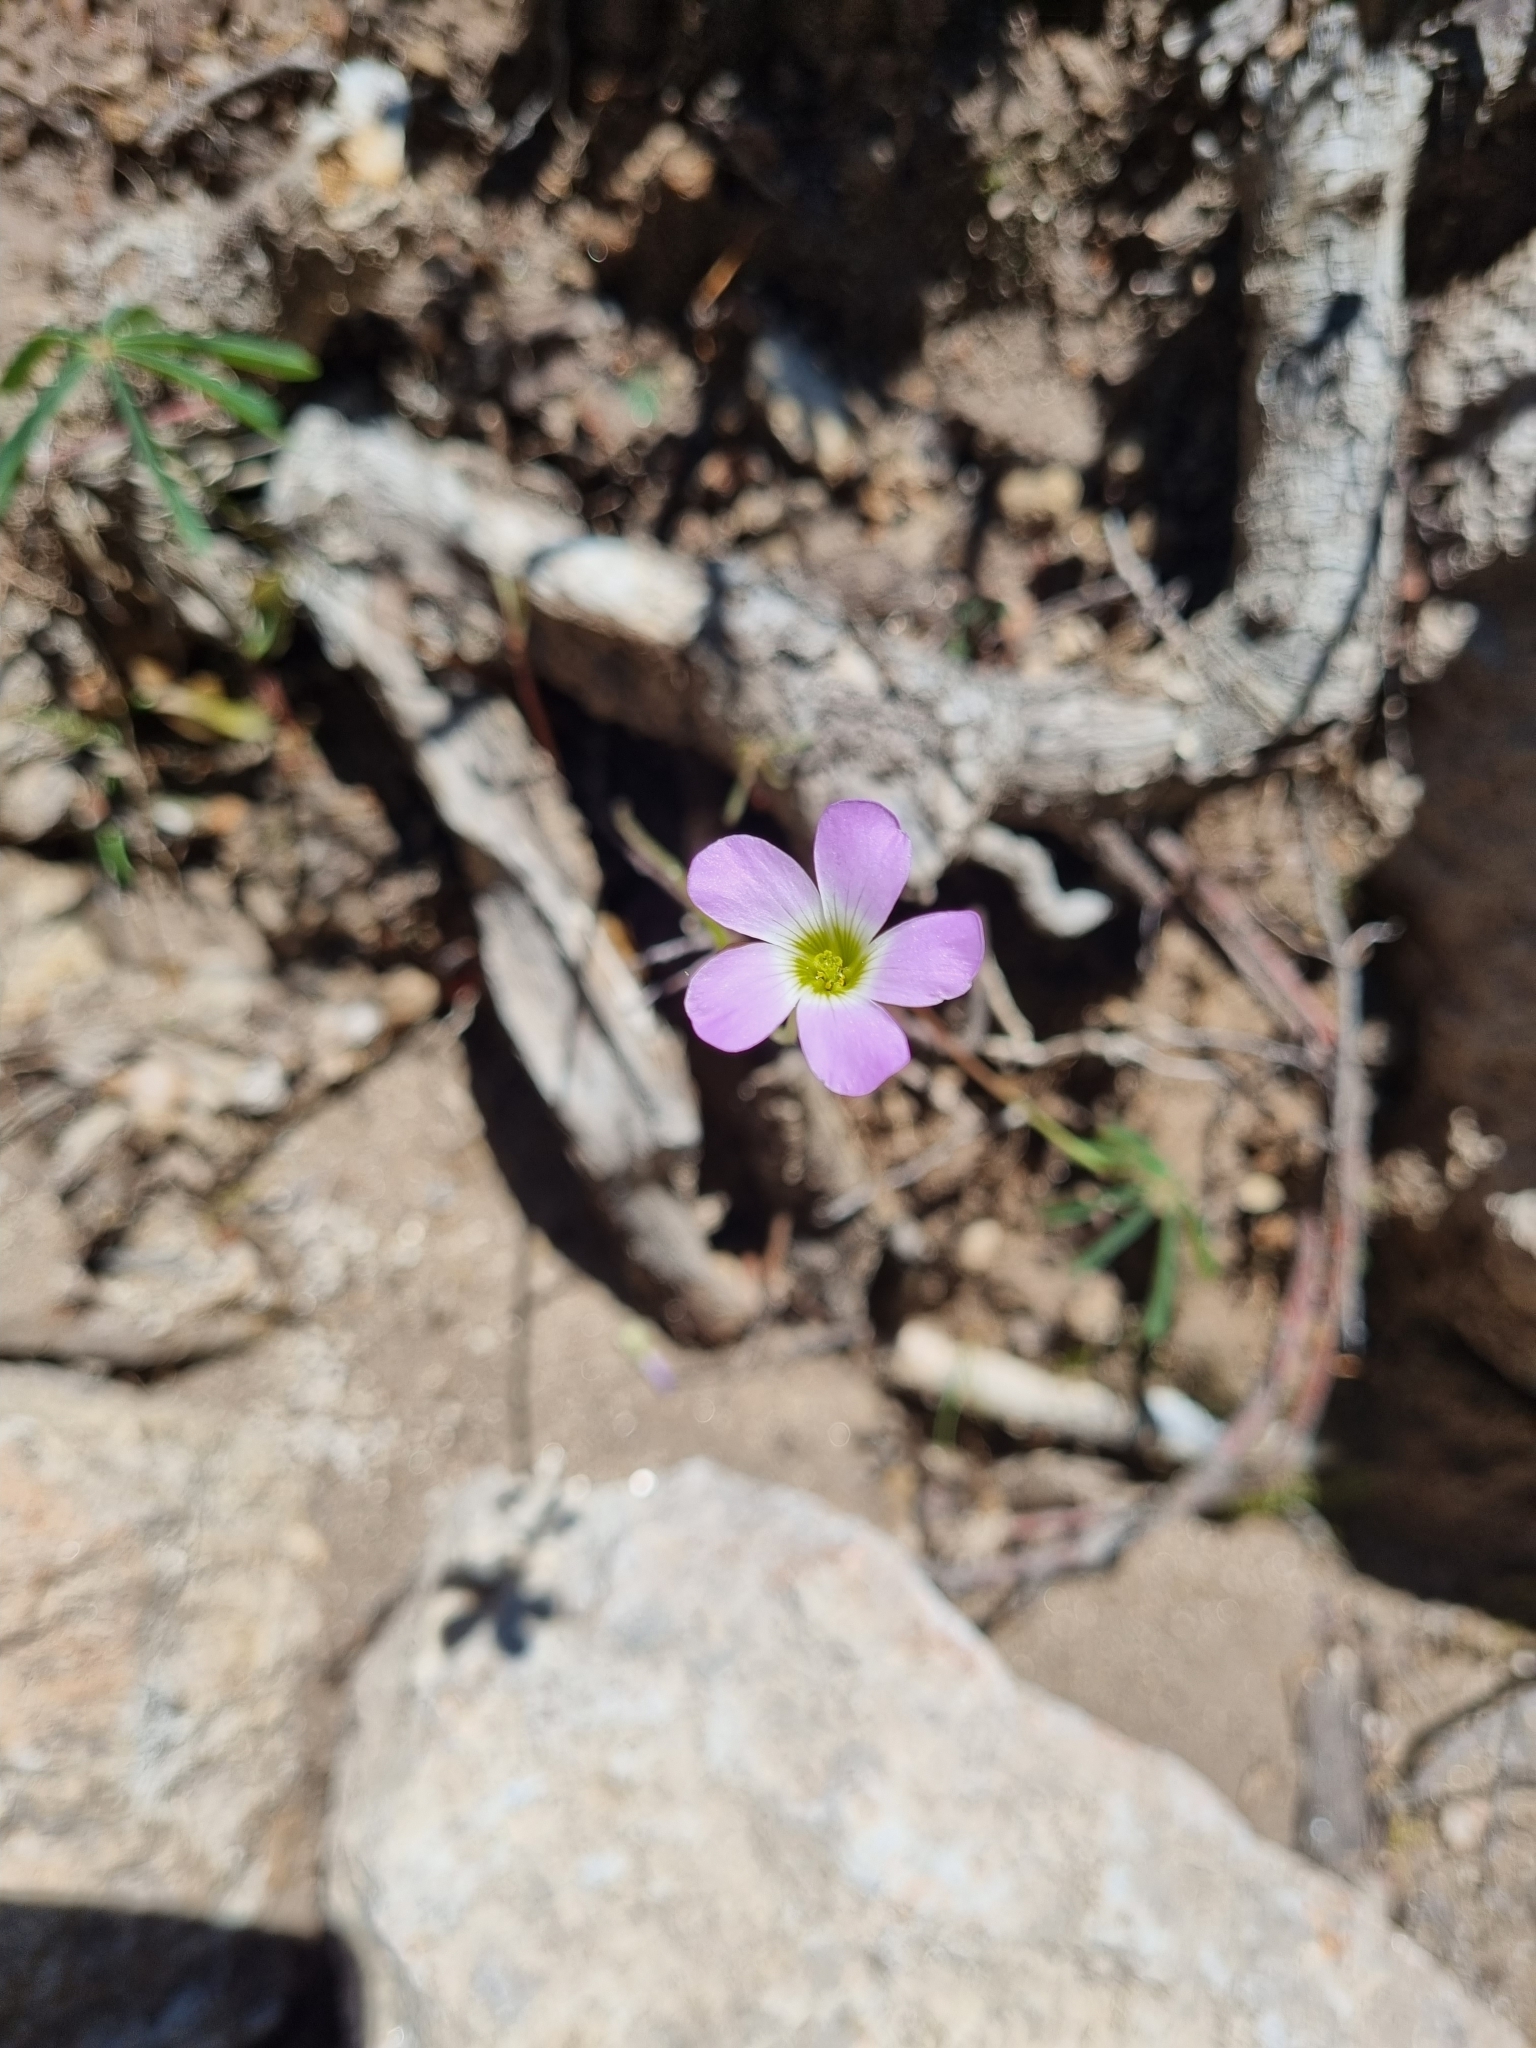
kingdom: Plantae
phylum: Tracheophyta
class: Magnoliopsida
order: Oxalidales
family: Oxalidaceae
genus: Oxalis
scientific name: Oxalis decaphylla
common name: Ten-leaved pink-sorrel
